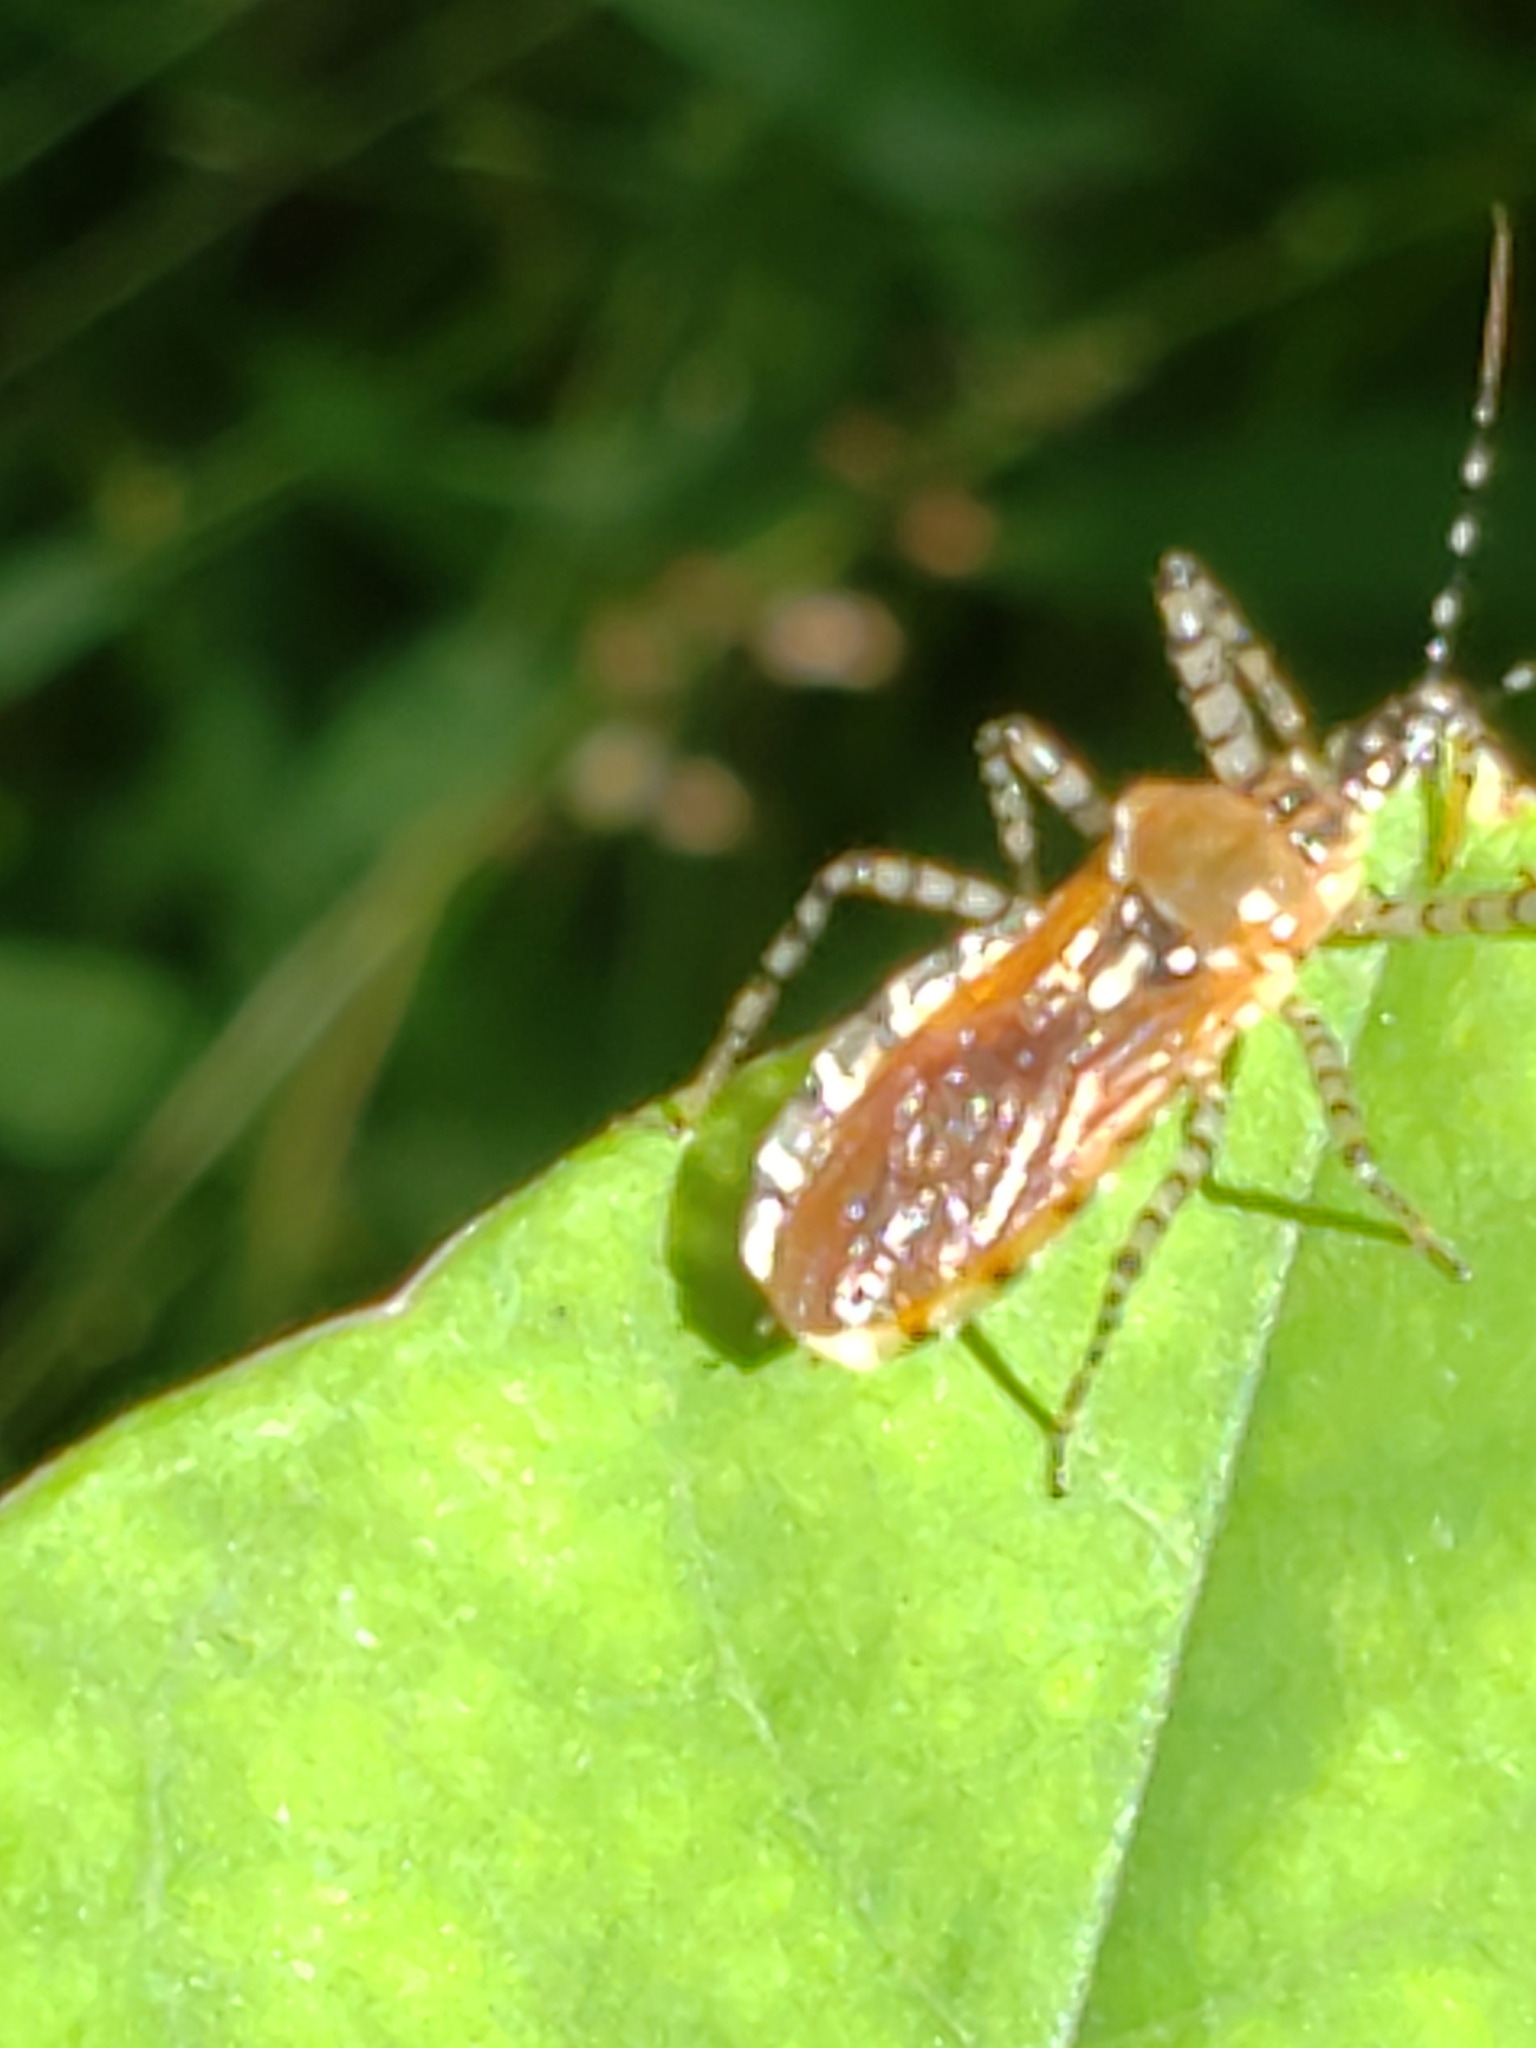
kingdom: Animalia
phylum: Arthropoda
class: Insecta
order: Hemiptera
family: Reduviidae
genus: Pselliopus
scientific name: Pselliopus cinctus
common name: Ringed assassin bug
